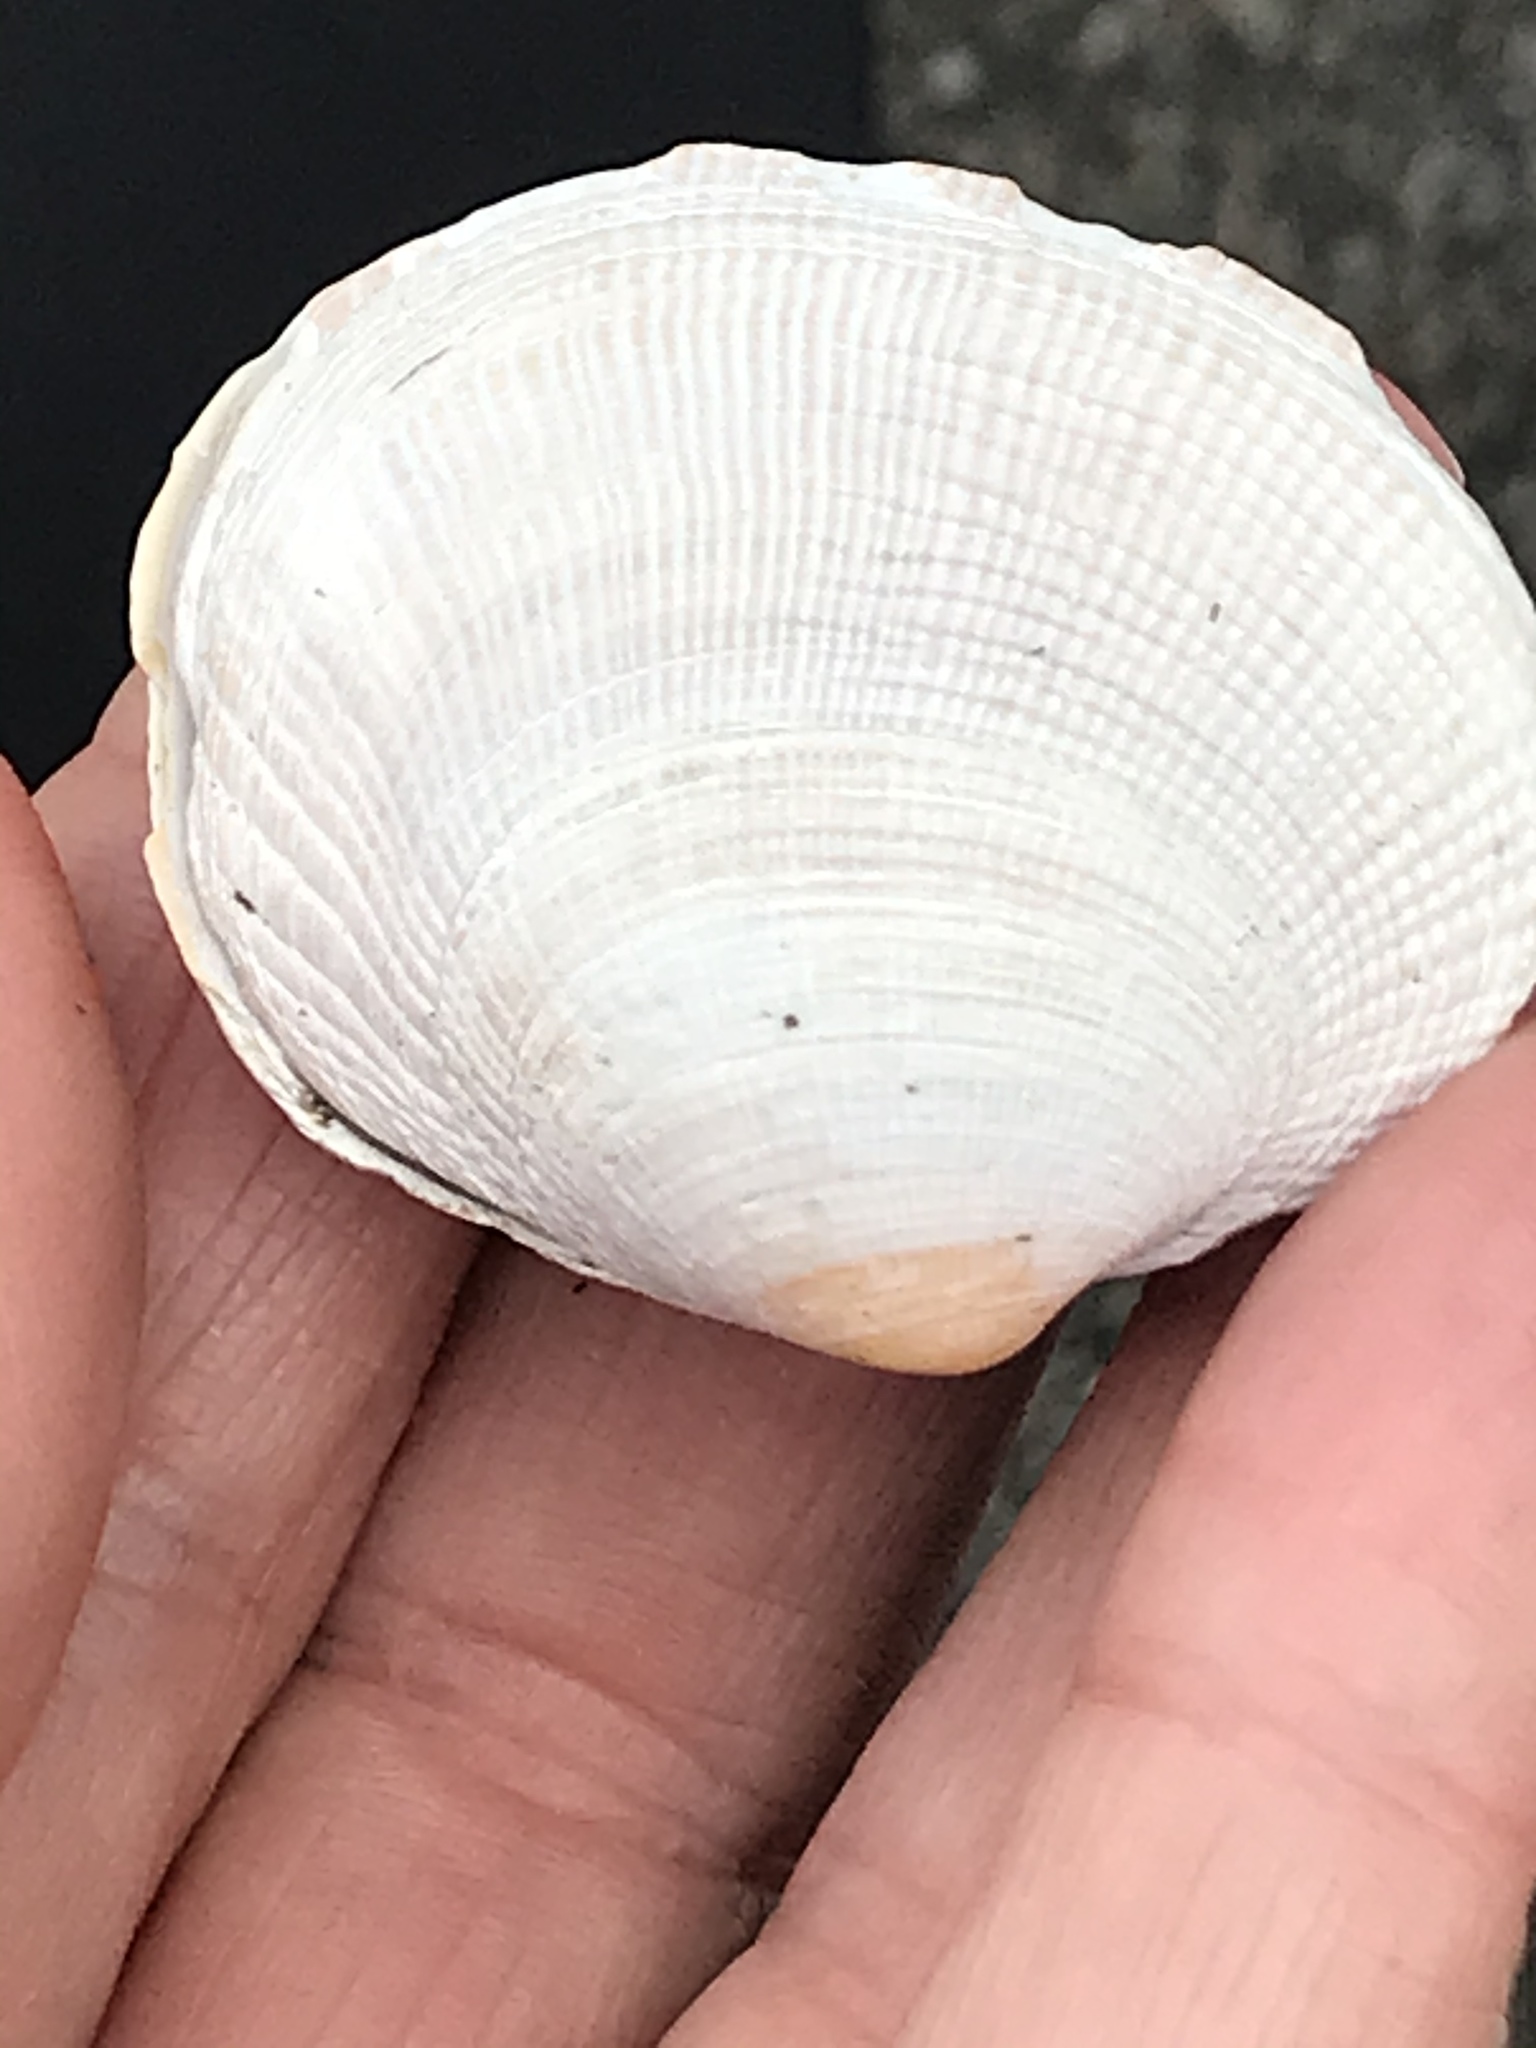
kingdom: Animalia
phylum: Mollusca
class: Bivalvia
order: Venerida
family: Veneridae
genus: Leukoma
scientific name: Leukoma staminea
